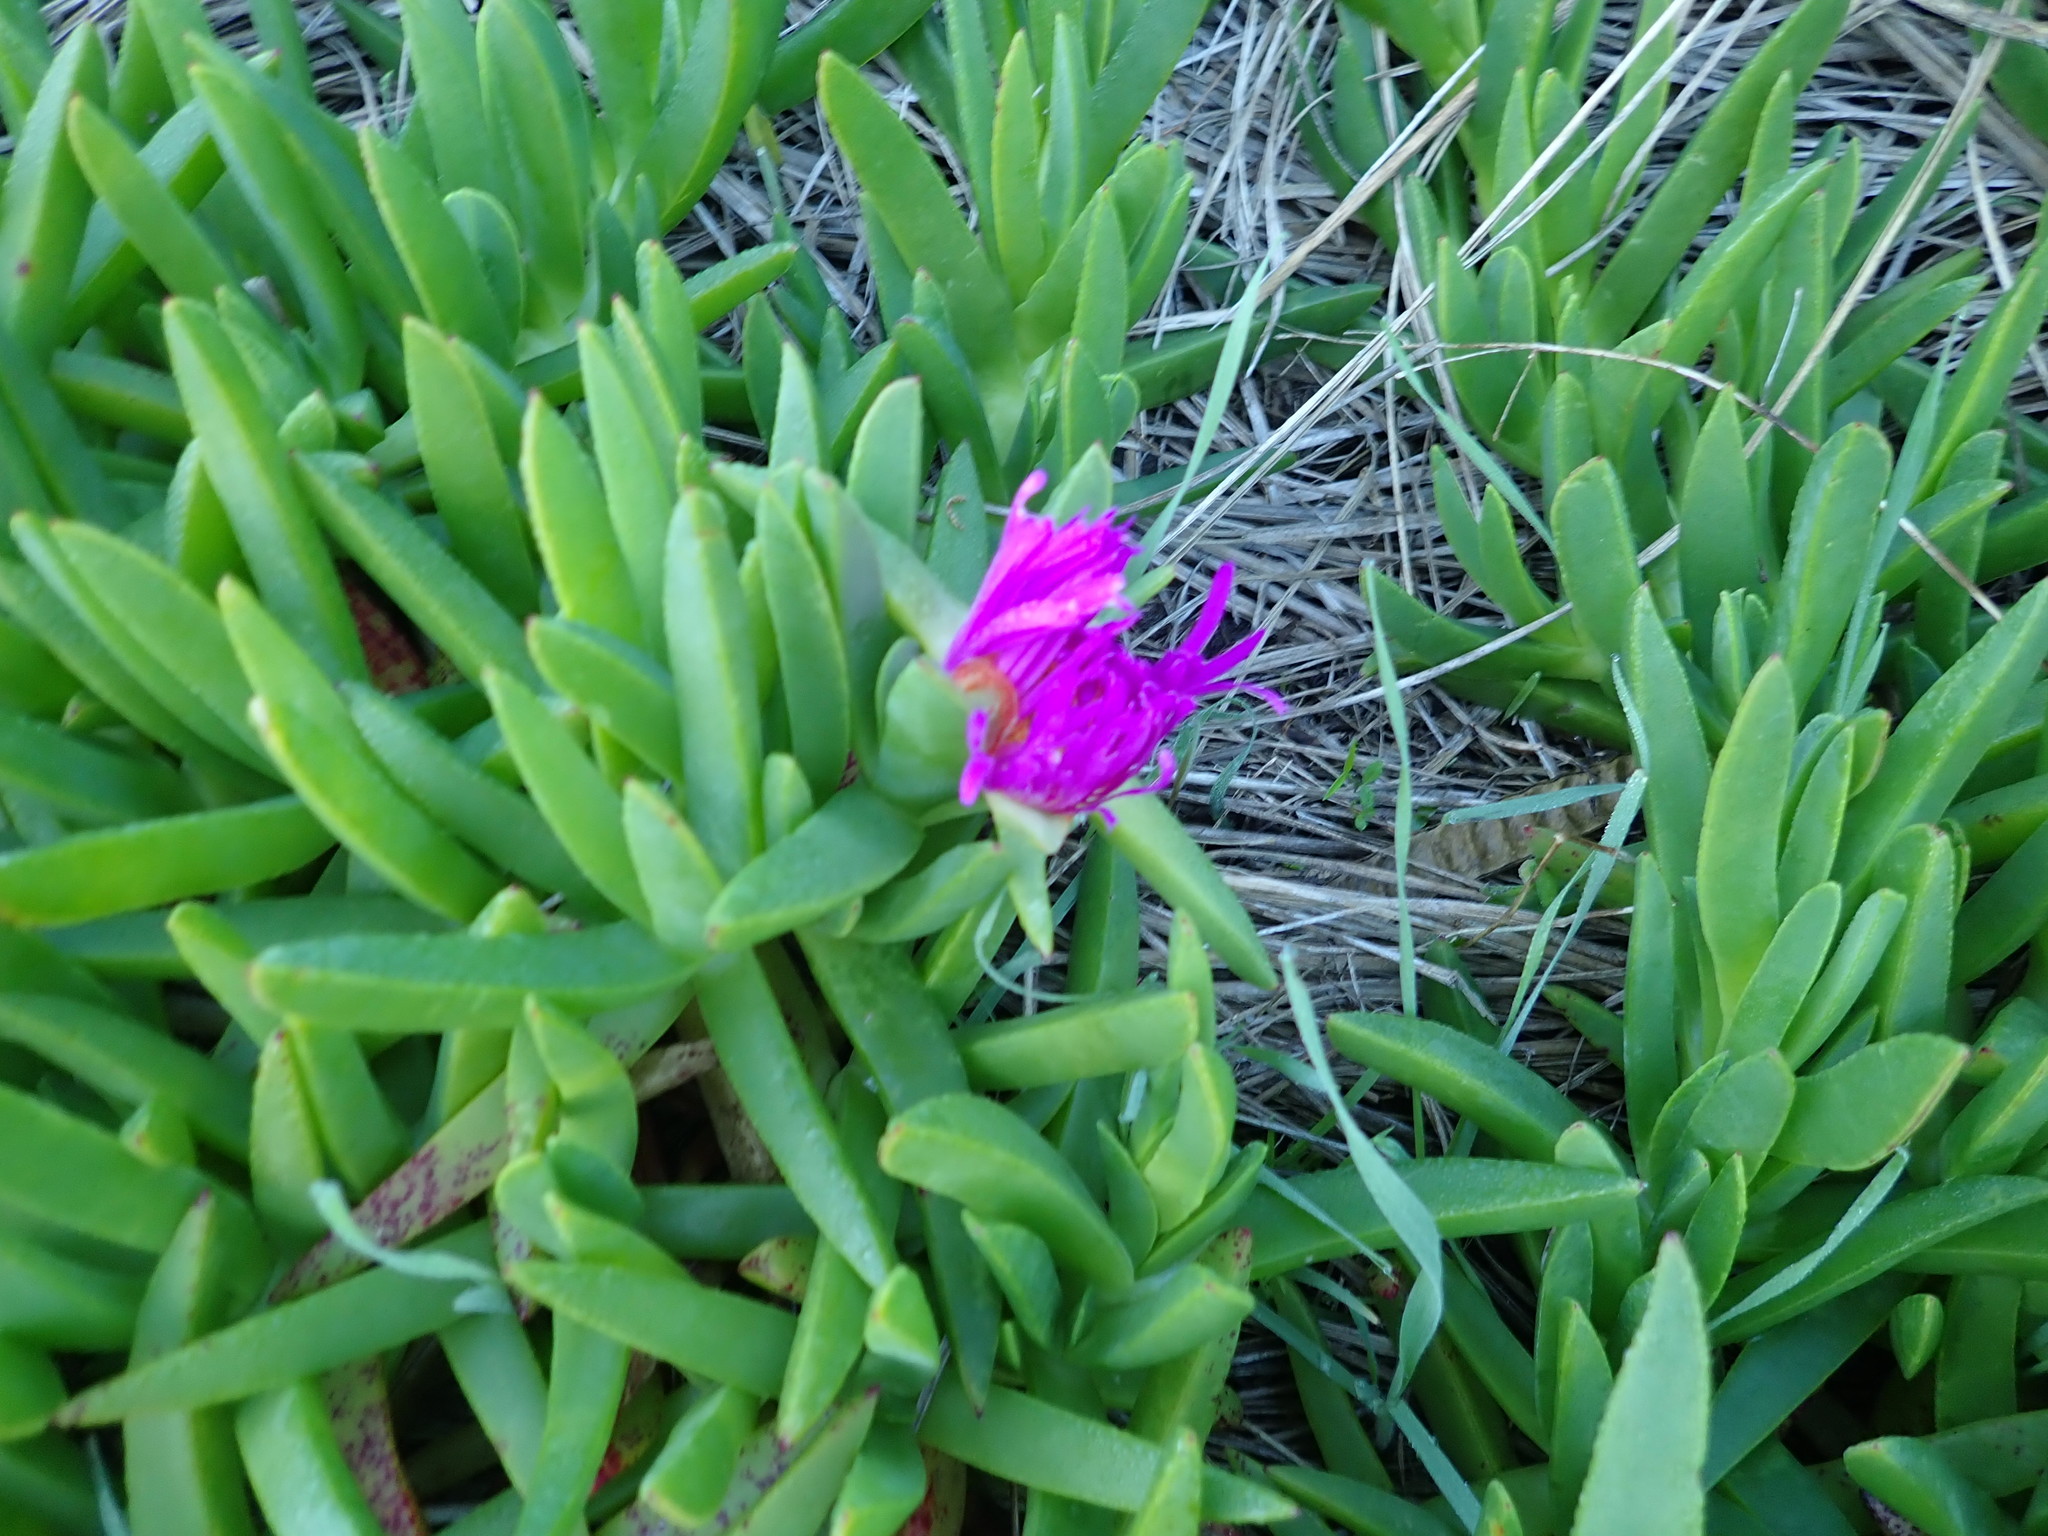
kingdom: Plantae
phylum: Tracheophyta
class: Magnoliopsida
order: Caryophyllales
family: Aizoaceae
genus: Carpobrotus
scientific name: Carpobrotus chilensis
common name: Sea fig
